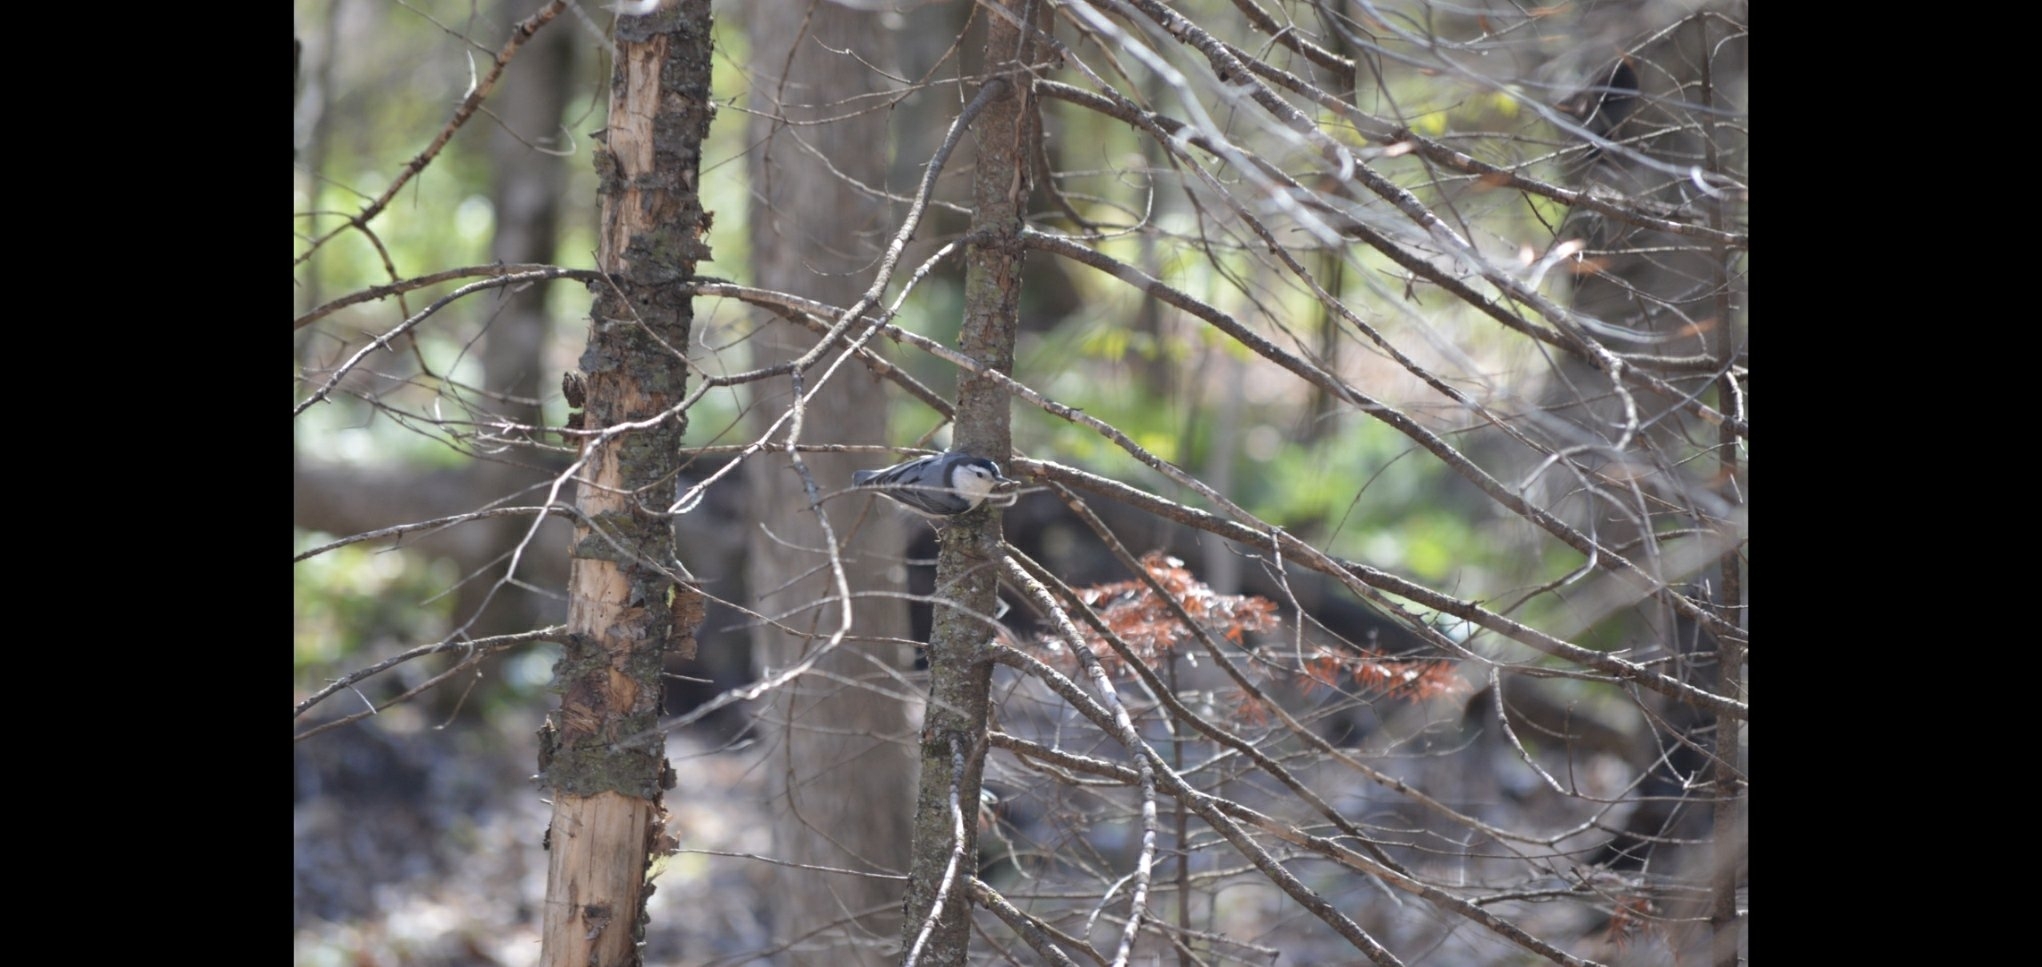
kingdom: Animalia
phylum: Chordata
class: Aves
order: Passeriformes
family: Sittidae
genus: Sitta
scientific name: Sitta carolinensis
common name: White-breasted nuthatch
